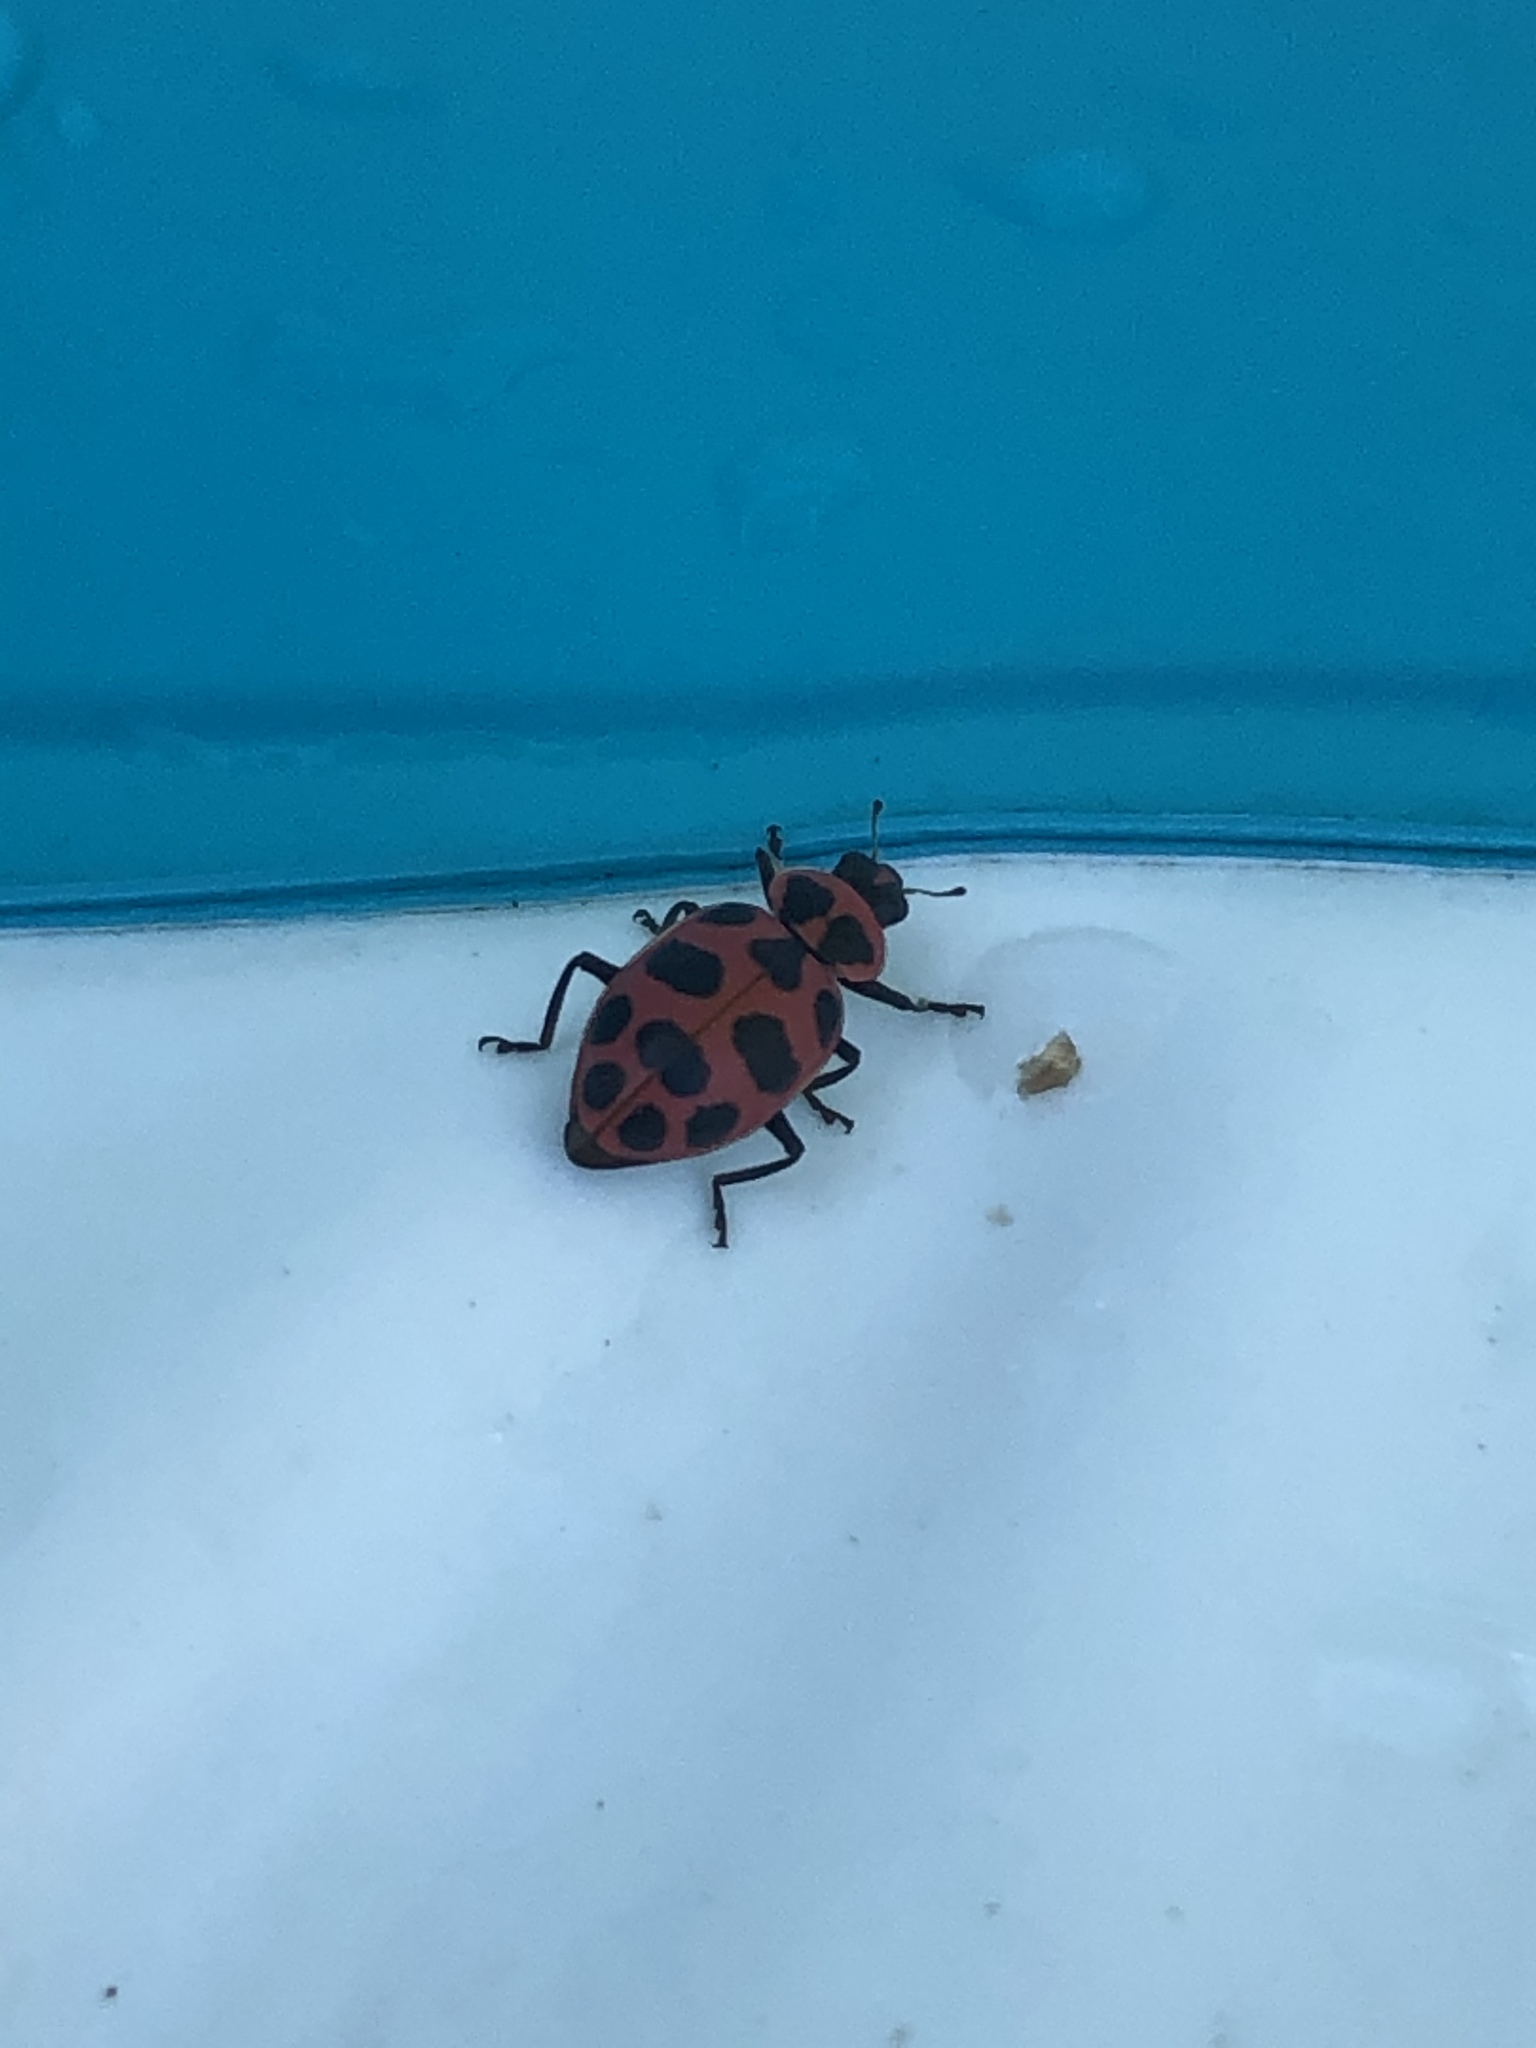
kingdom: Animalia
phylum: Arthropoda
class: Insecta
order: Coleoptera
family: Coccinellidae
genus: Coleomegilla
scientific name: Coleomegilla maculata
